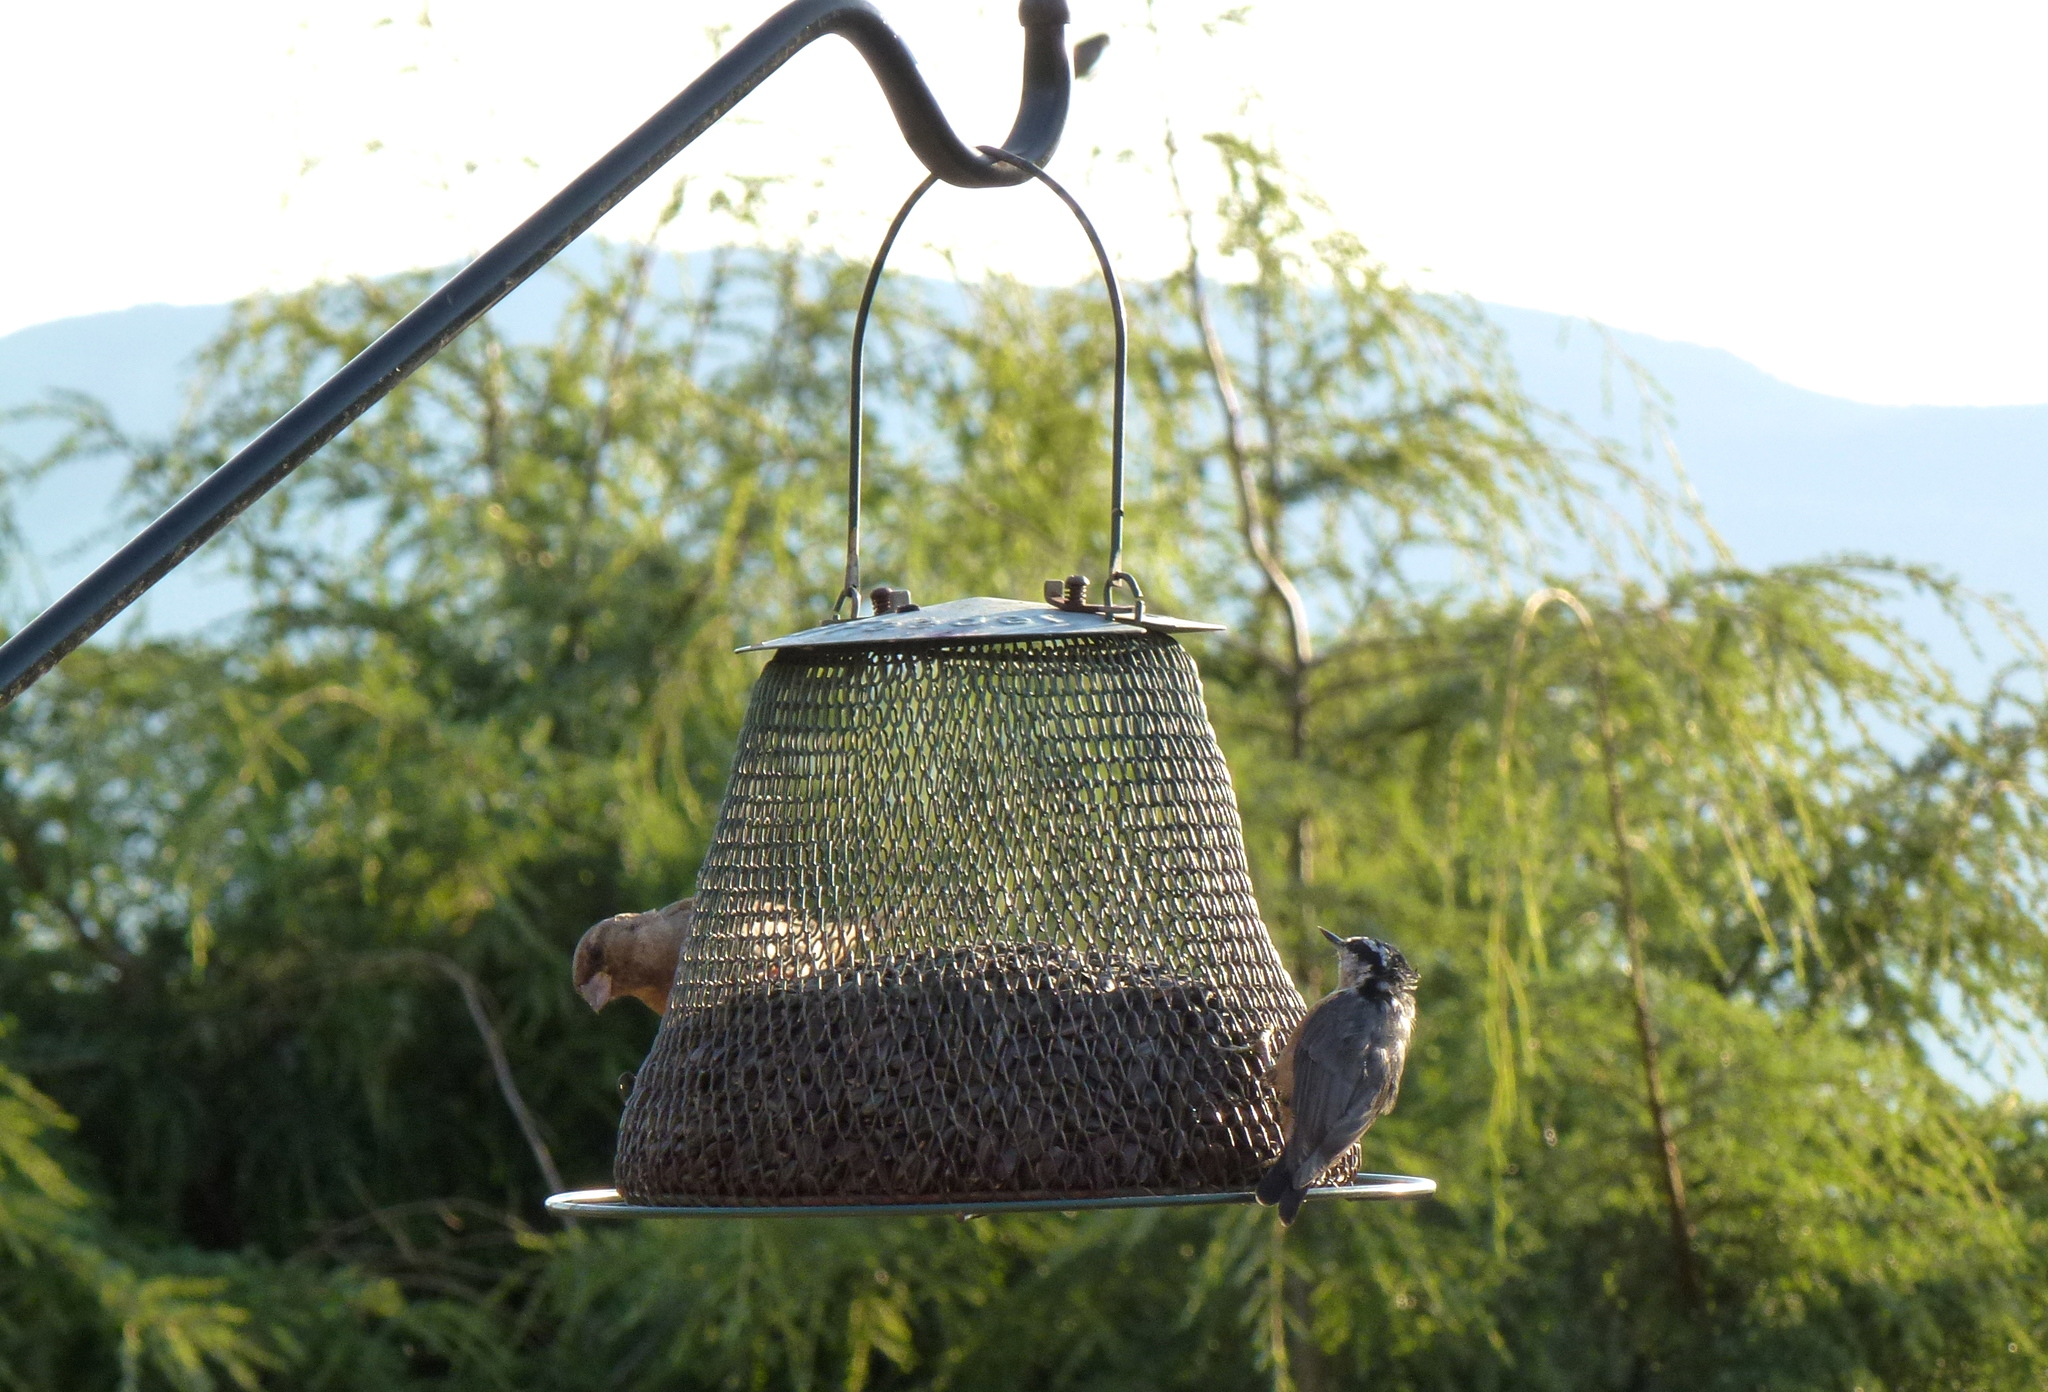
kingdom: Animalia
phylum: Chordata
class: Aves
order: Passeriformes
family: Sittidae
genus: Sitta
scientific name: Sitta canadensis
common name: Red-breasted nuthatch
